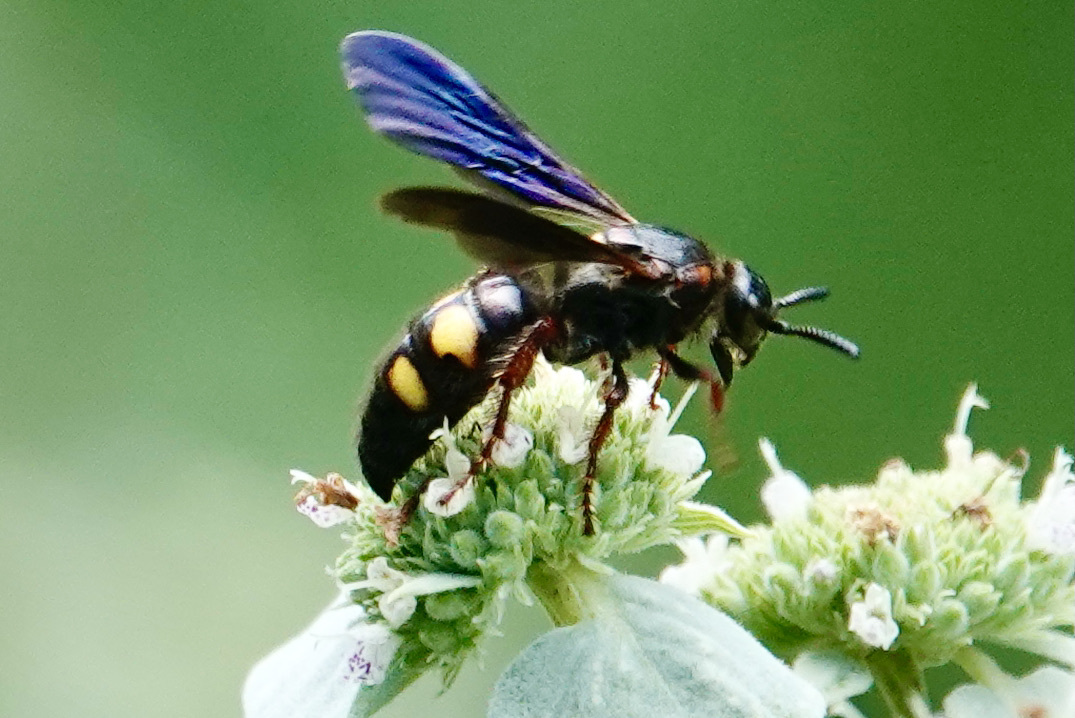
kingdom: Animalia
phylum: Arthropoda
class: Insecta
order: Hymenoptera
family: Scoliidae
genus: Scolia
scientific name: Scolia nobilitata
